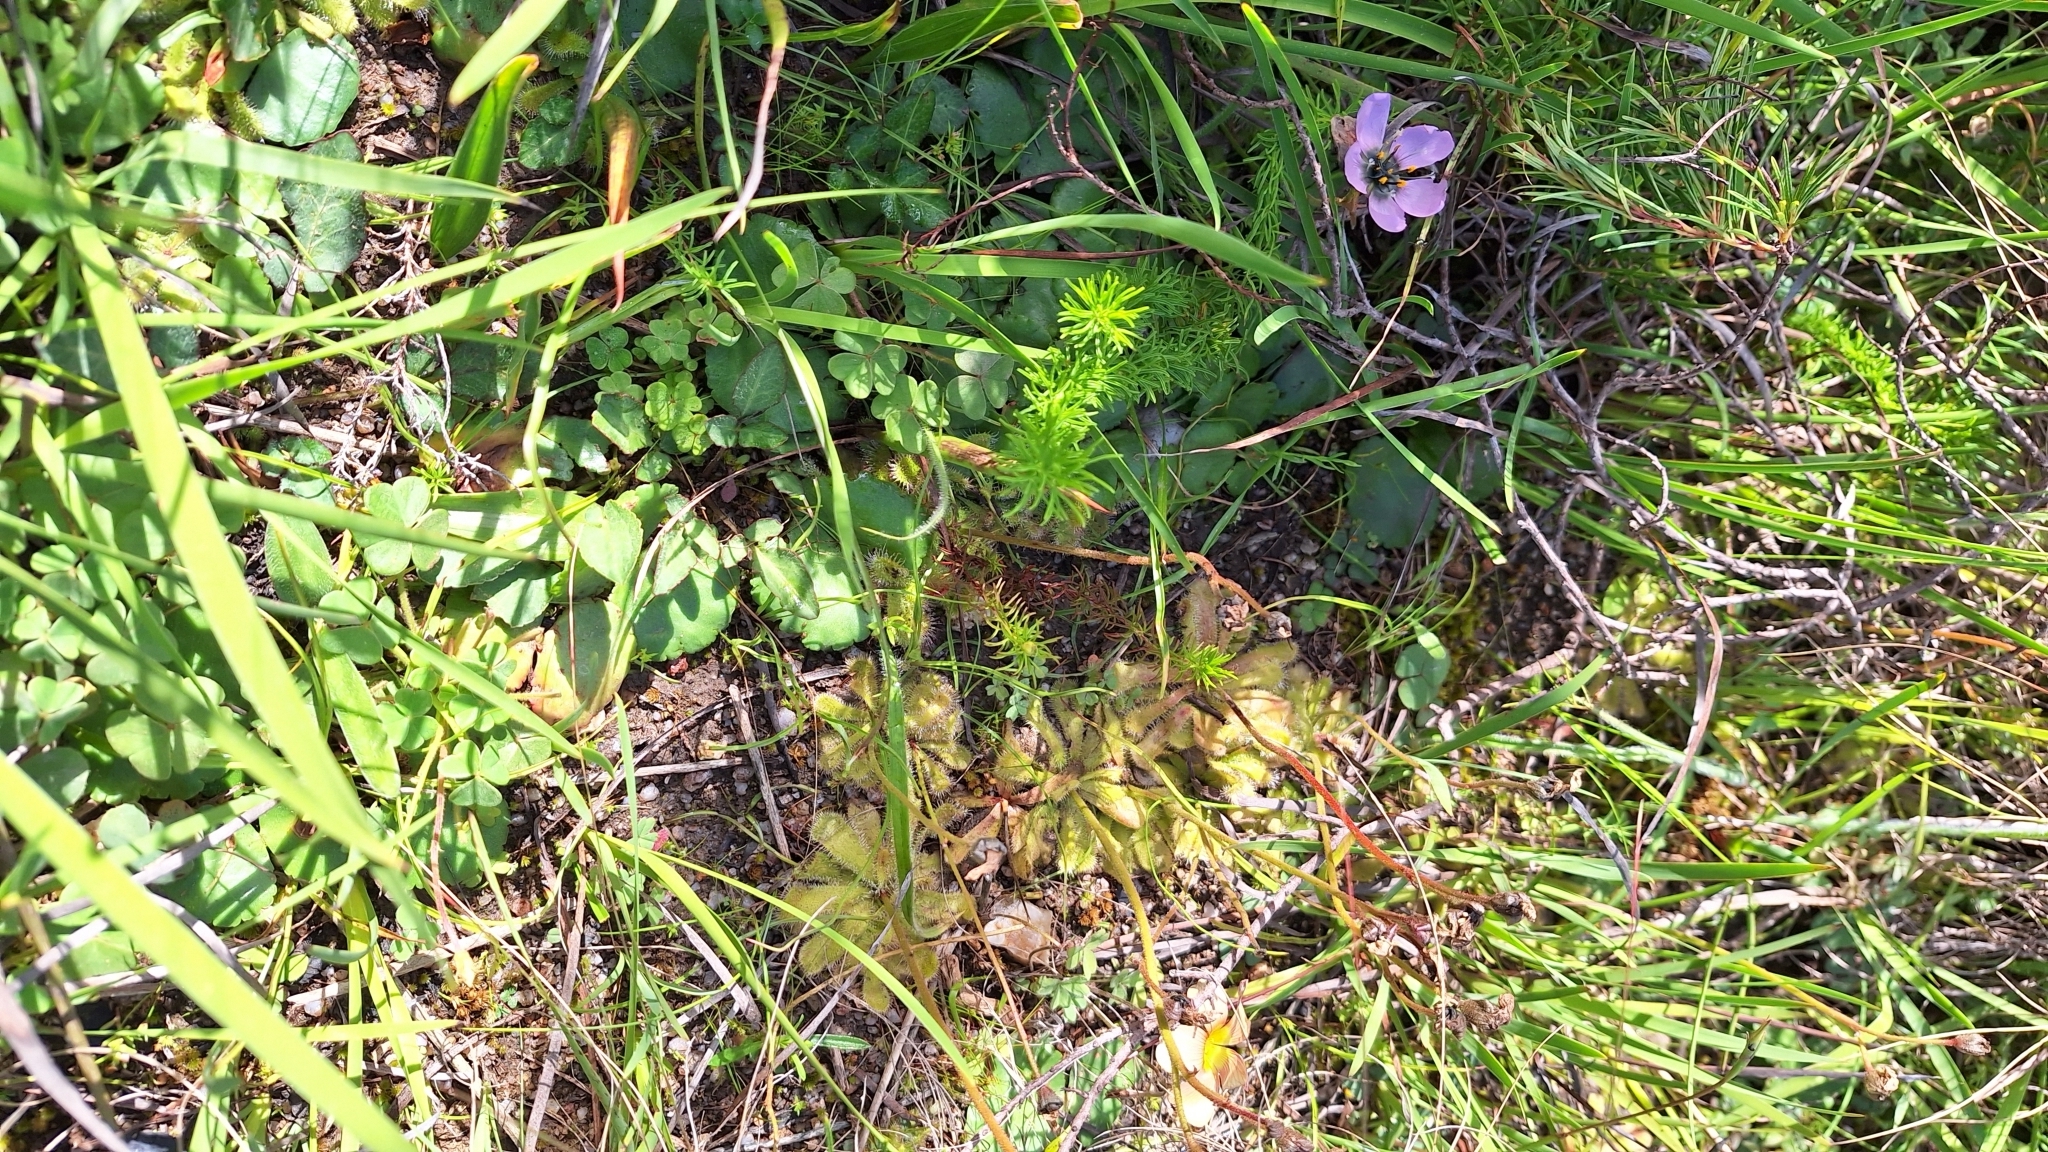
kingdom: Plantae
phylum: Tracheophyta
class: Magnoliopsida
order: Caryophyllales
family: Droseraceae
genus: Drosera
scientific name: Drosera pauciflora
